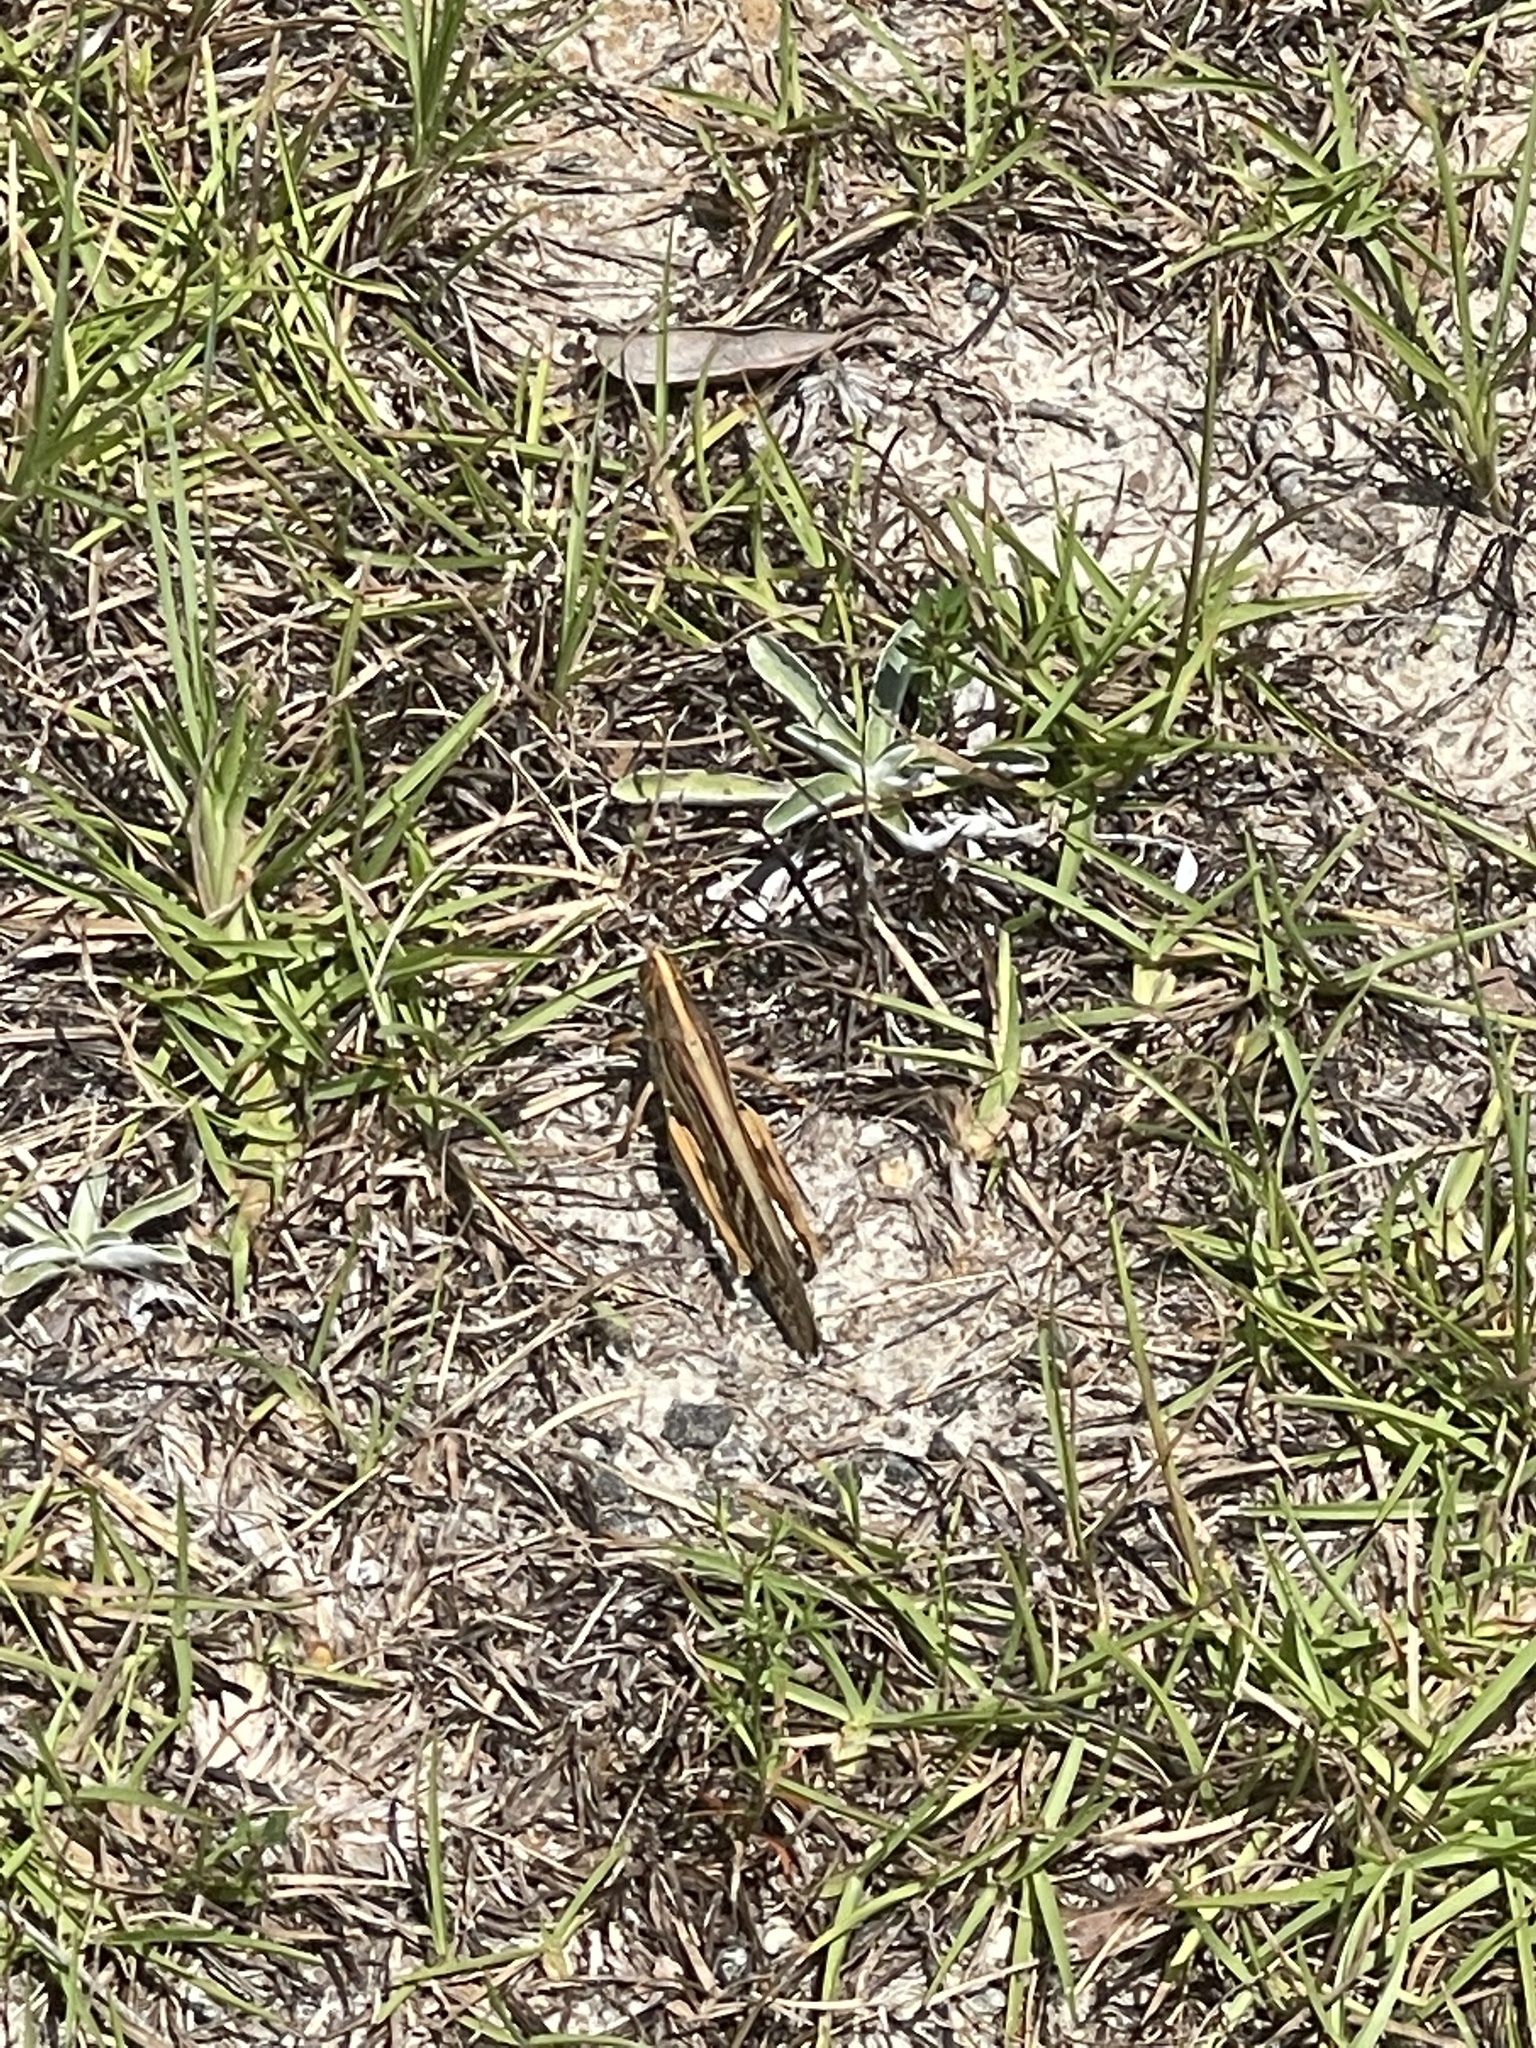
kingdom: Animalia
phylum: Arthropoda
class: Insecta
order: Orthoptera
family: Acrididae
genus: Schistocerca
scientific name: Schistocerca americana
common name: American bird locust
